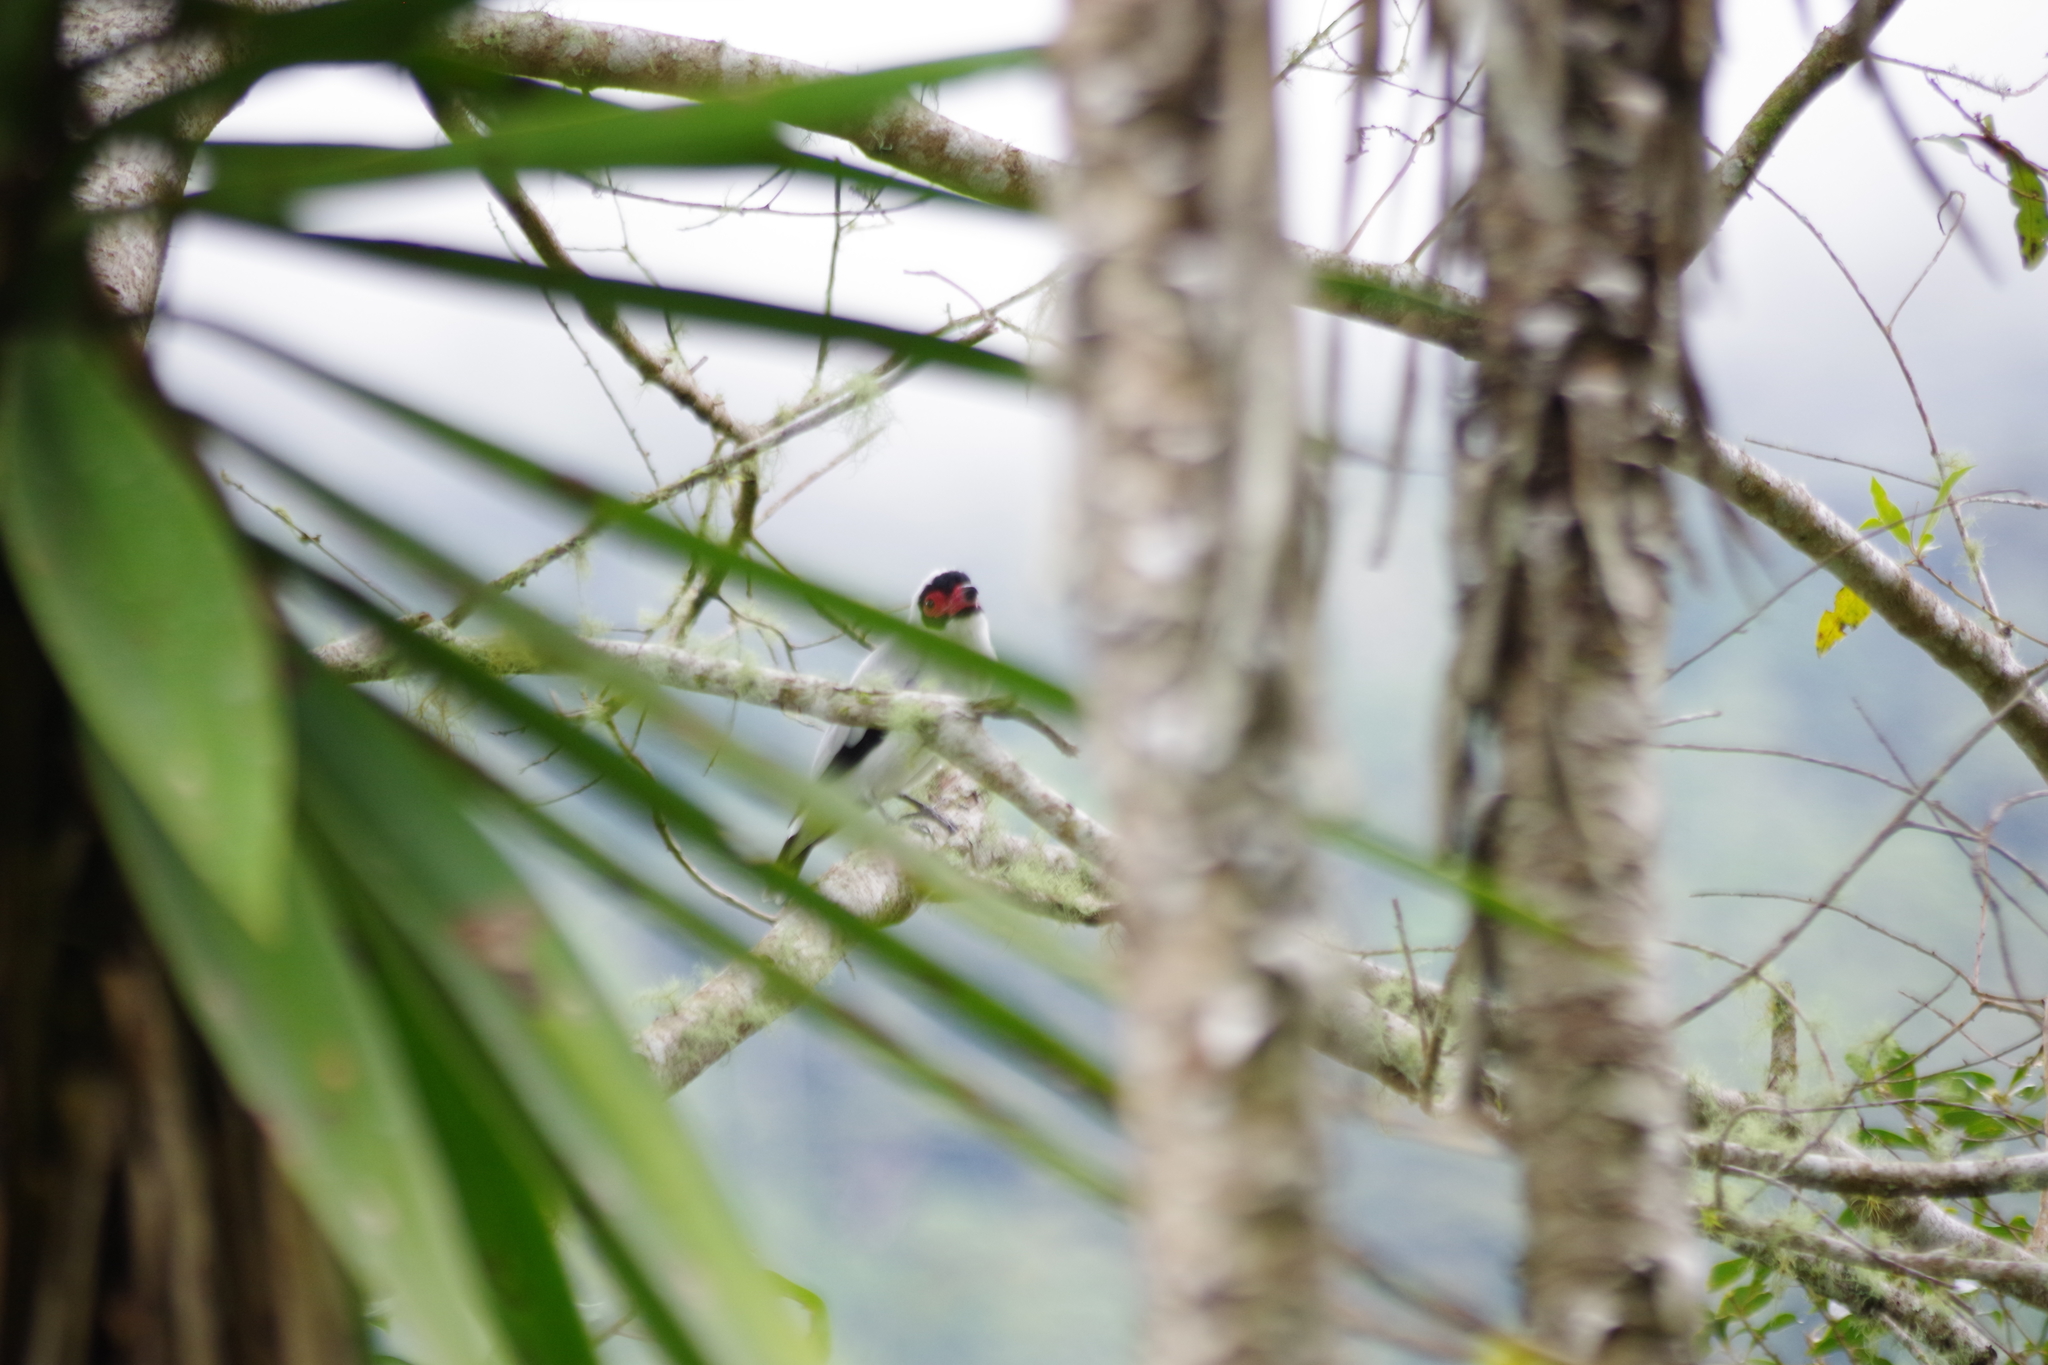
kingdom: Animalia
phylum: Chordata
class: Aves
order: Passeriformes
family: Cotingidae
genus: Tityra
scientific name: Tityra semifasciata
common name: Masked tityra
